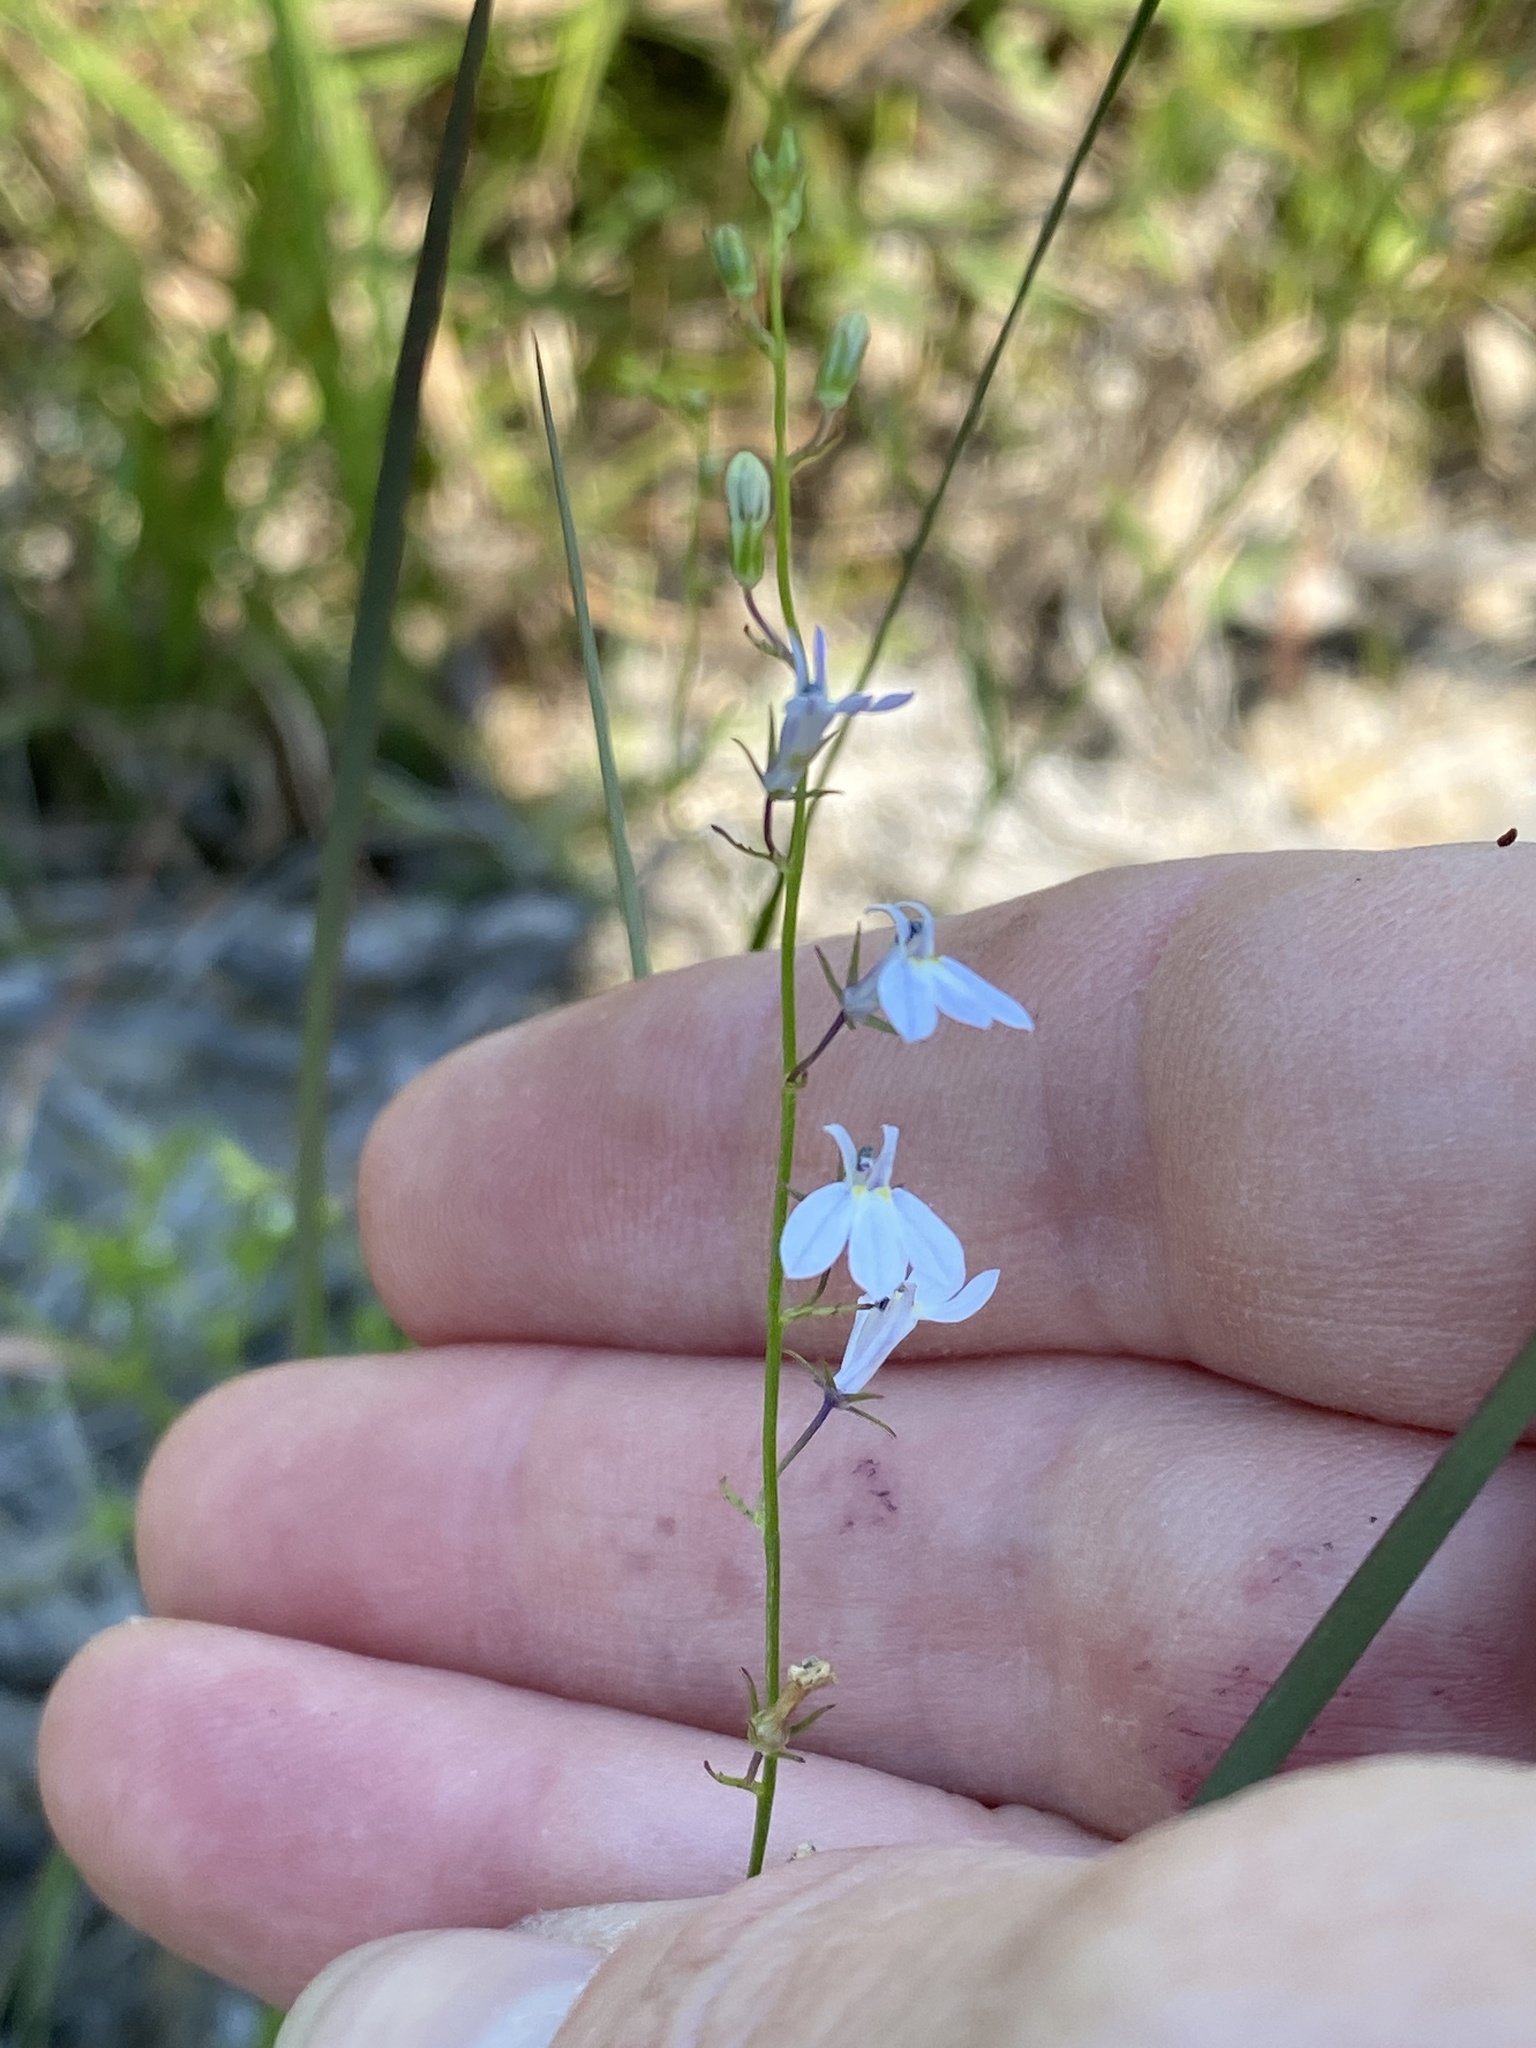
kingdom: Plantae
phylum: Tracheophyta
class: Magnoliopsida
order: Asterales
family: Campanulaceae
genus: Lobelia
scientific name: Lobelia nuttallii
